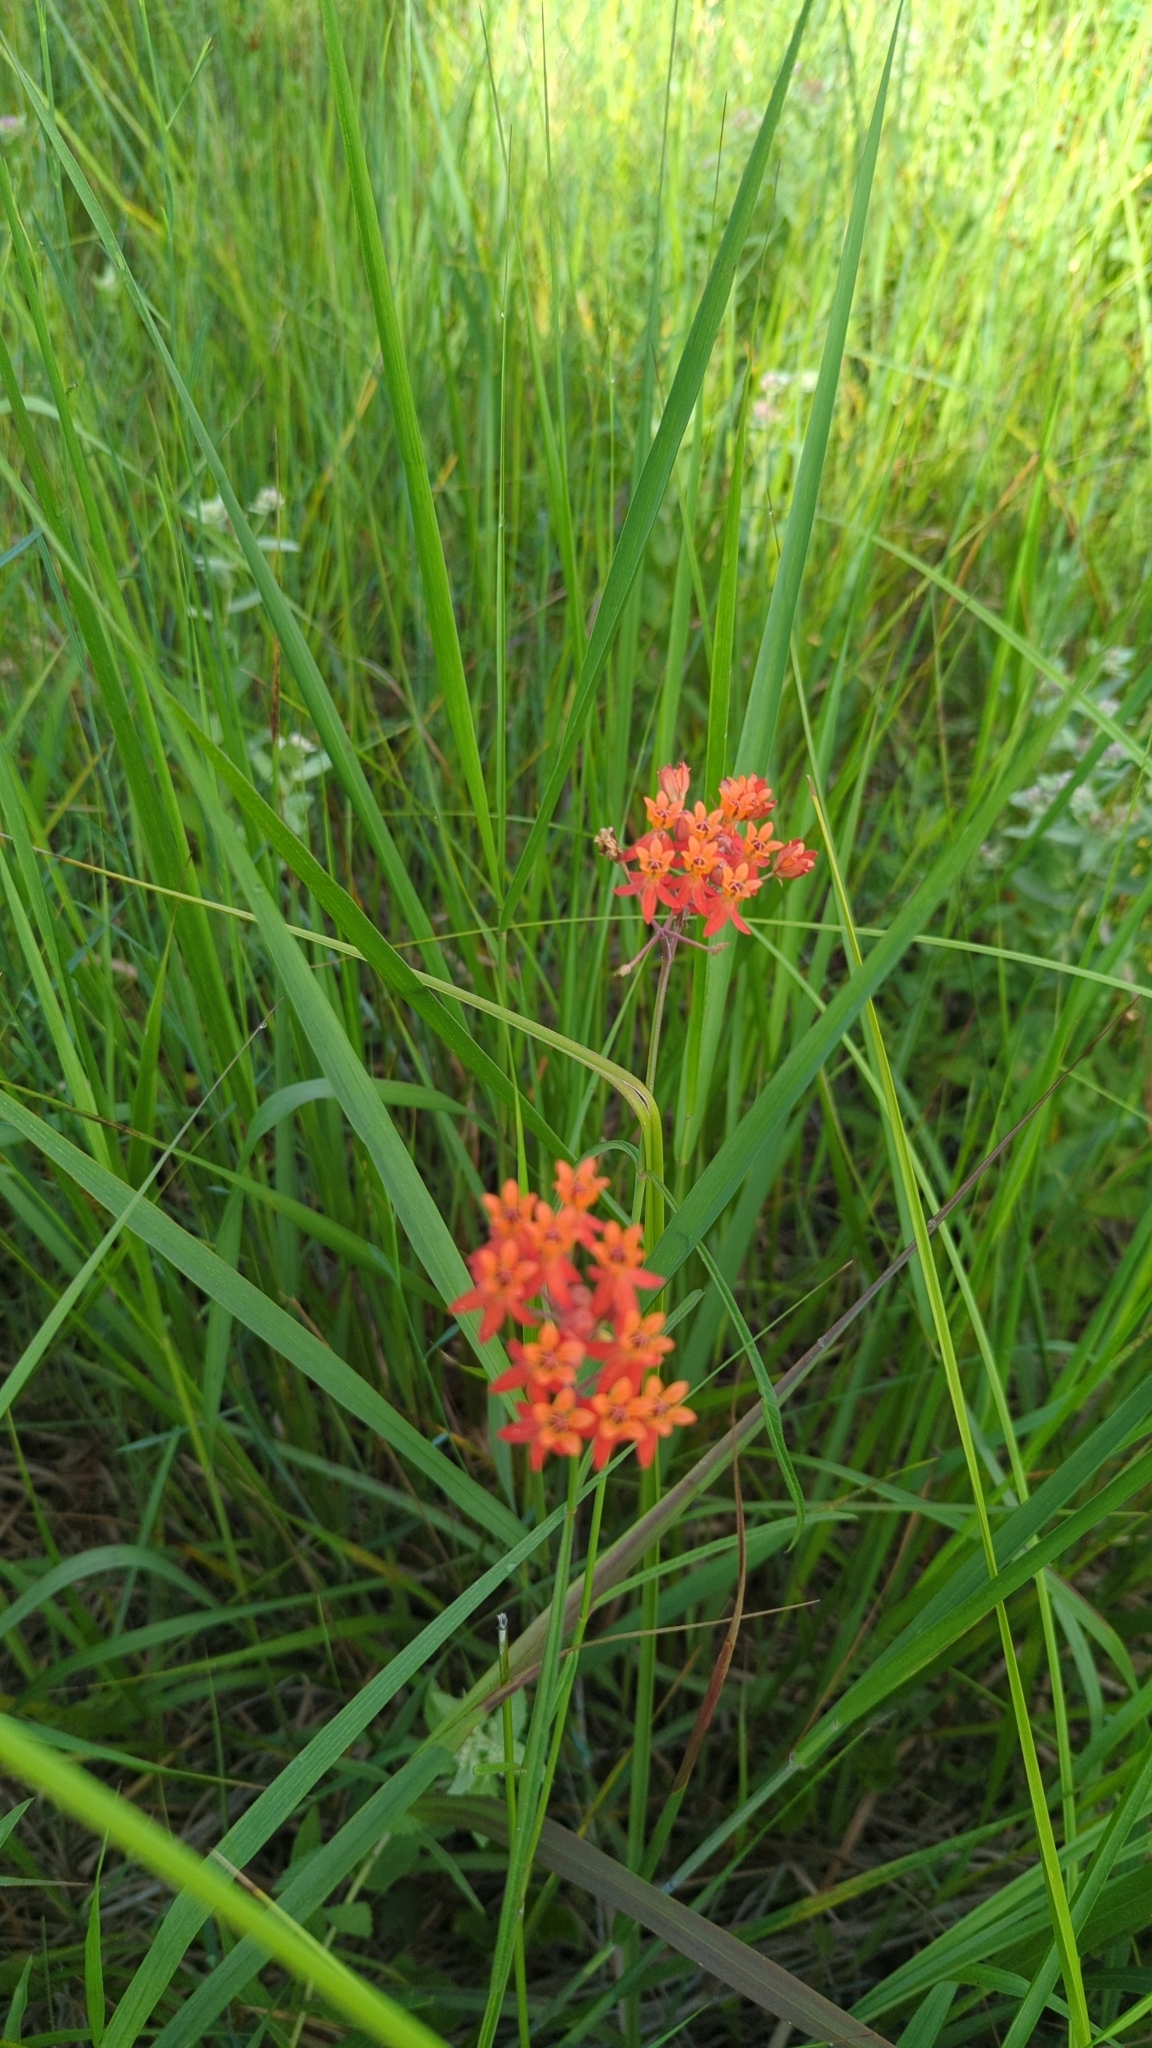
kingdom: Plantae
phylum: Tracheophyta
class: Magnoliopsida
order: Gentianales
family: Apocynaceae
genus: Asclepias
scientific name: Asclepias lanceolata
